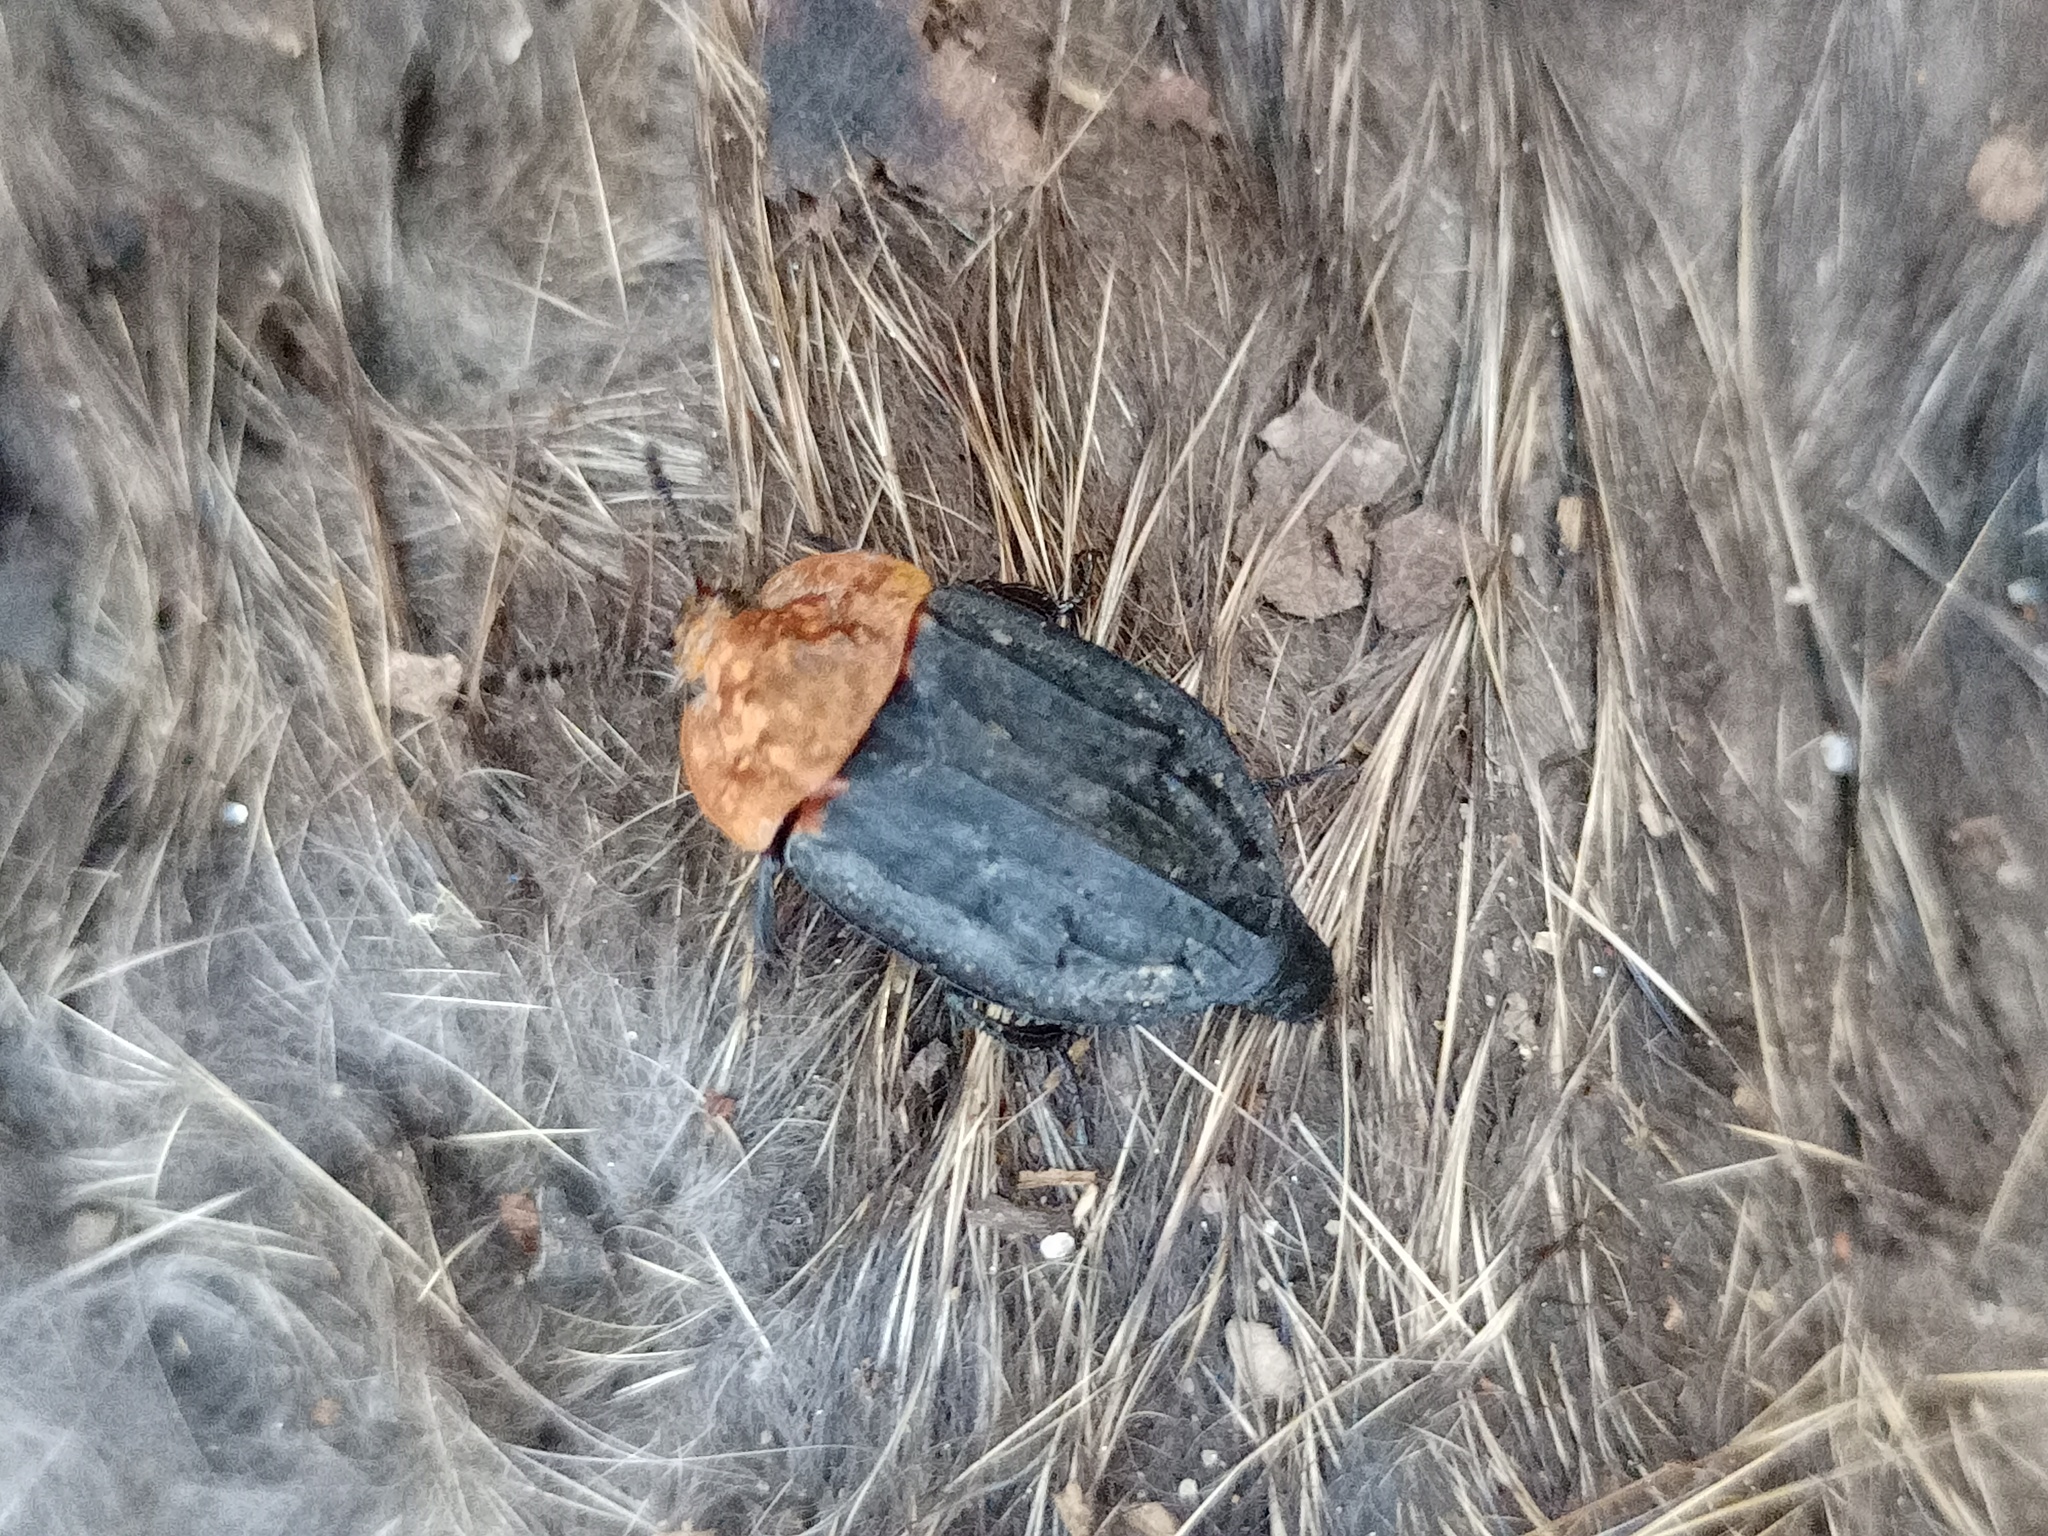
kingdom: Animalia
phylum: Arthropoda
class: Insecta
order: Coleoptera
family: Staphylinidae
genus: Oiceoptoma
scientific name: Oiceoptoma thoracicum
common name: Red-breasted carrion beetle
